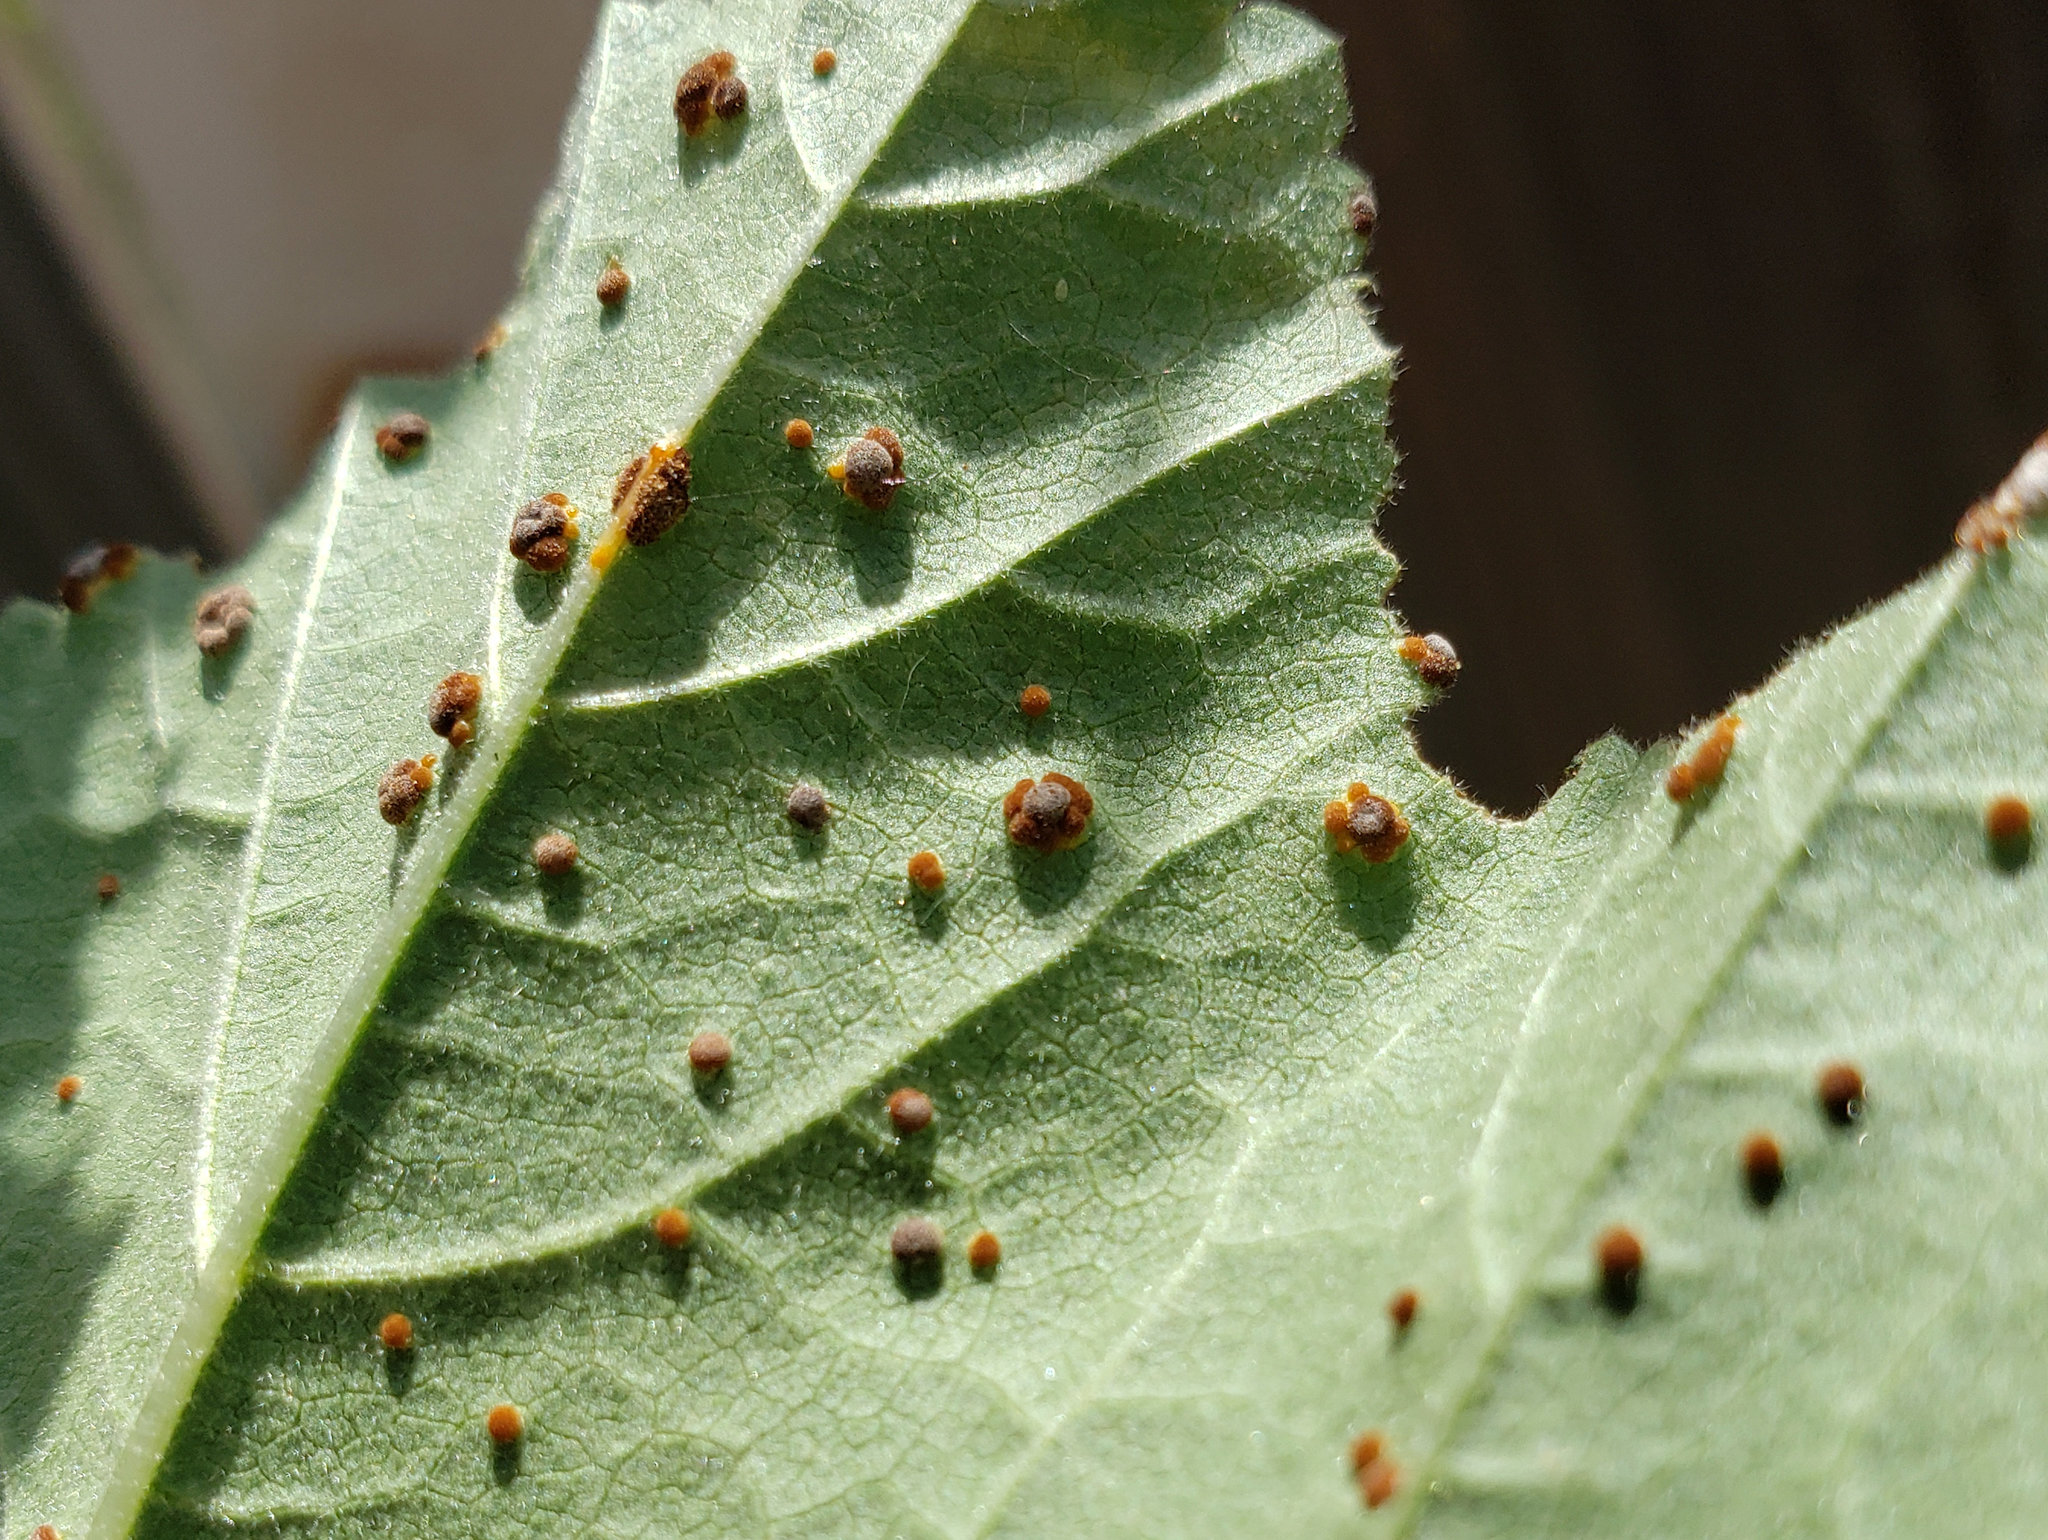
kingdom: Fungi
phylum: Basidiomycota
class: Pucciniomycetes
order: Pucciniales
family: Pucciniaceae
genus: Puccinia
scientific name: Puccinia malvacearum
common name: Hollyhock rust
